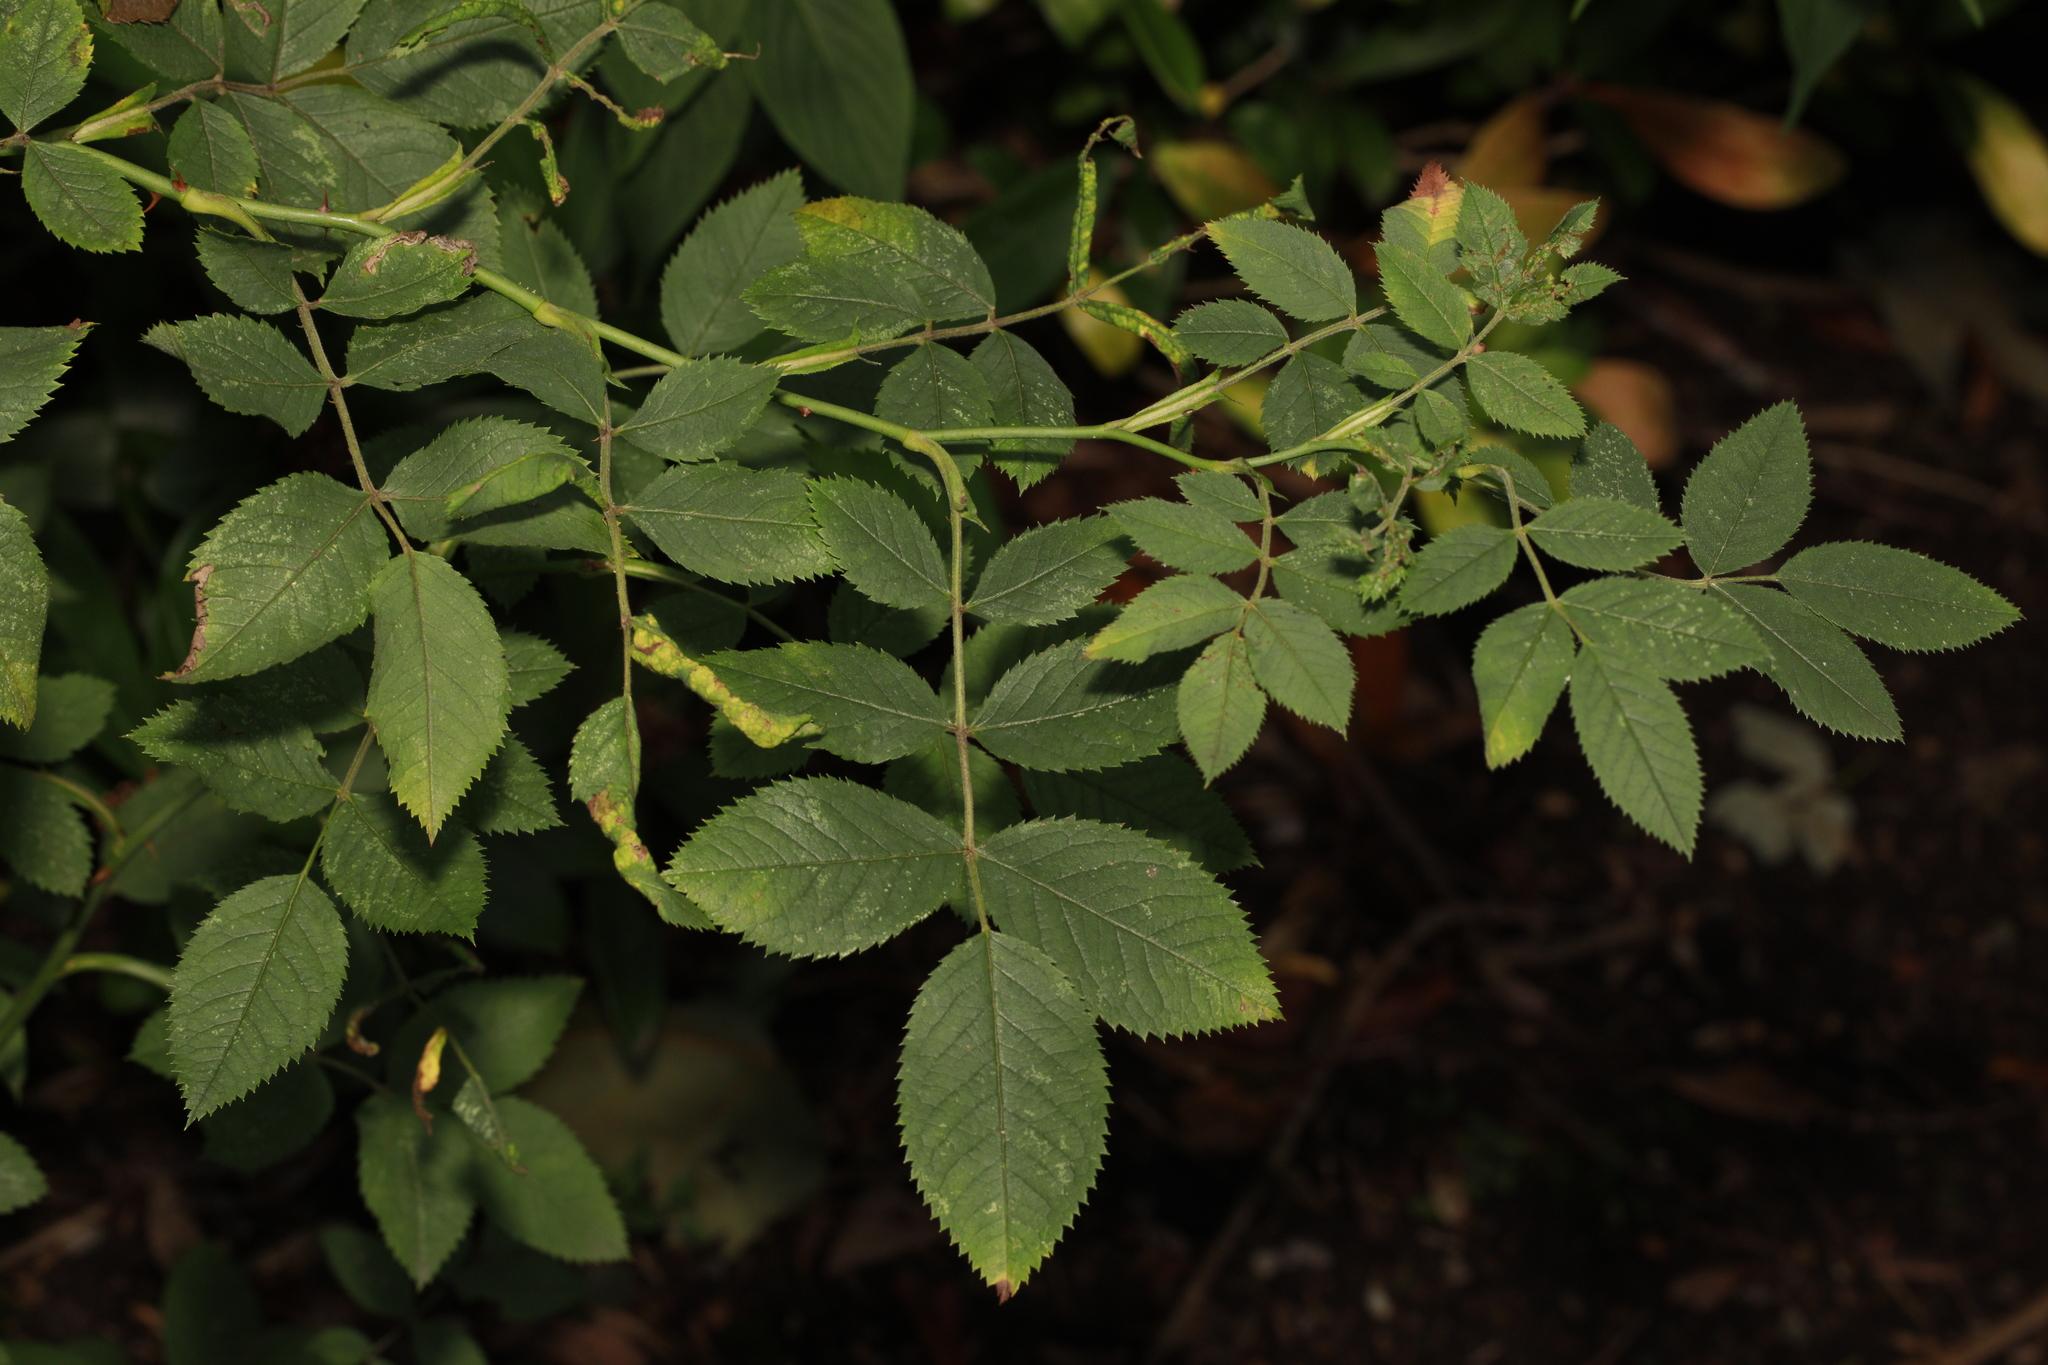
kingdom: Plantae
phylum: Tracheophyta
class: Magnoliopsida
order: Rosales
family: Rosaceae
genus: Rosa
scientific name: Rosa canina
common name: Dog rose
